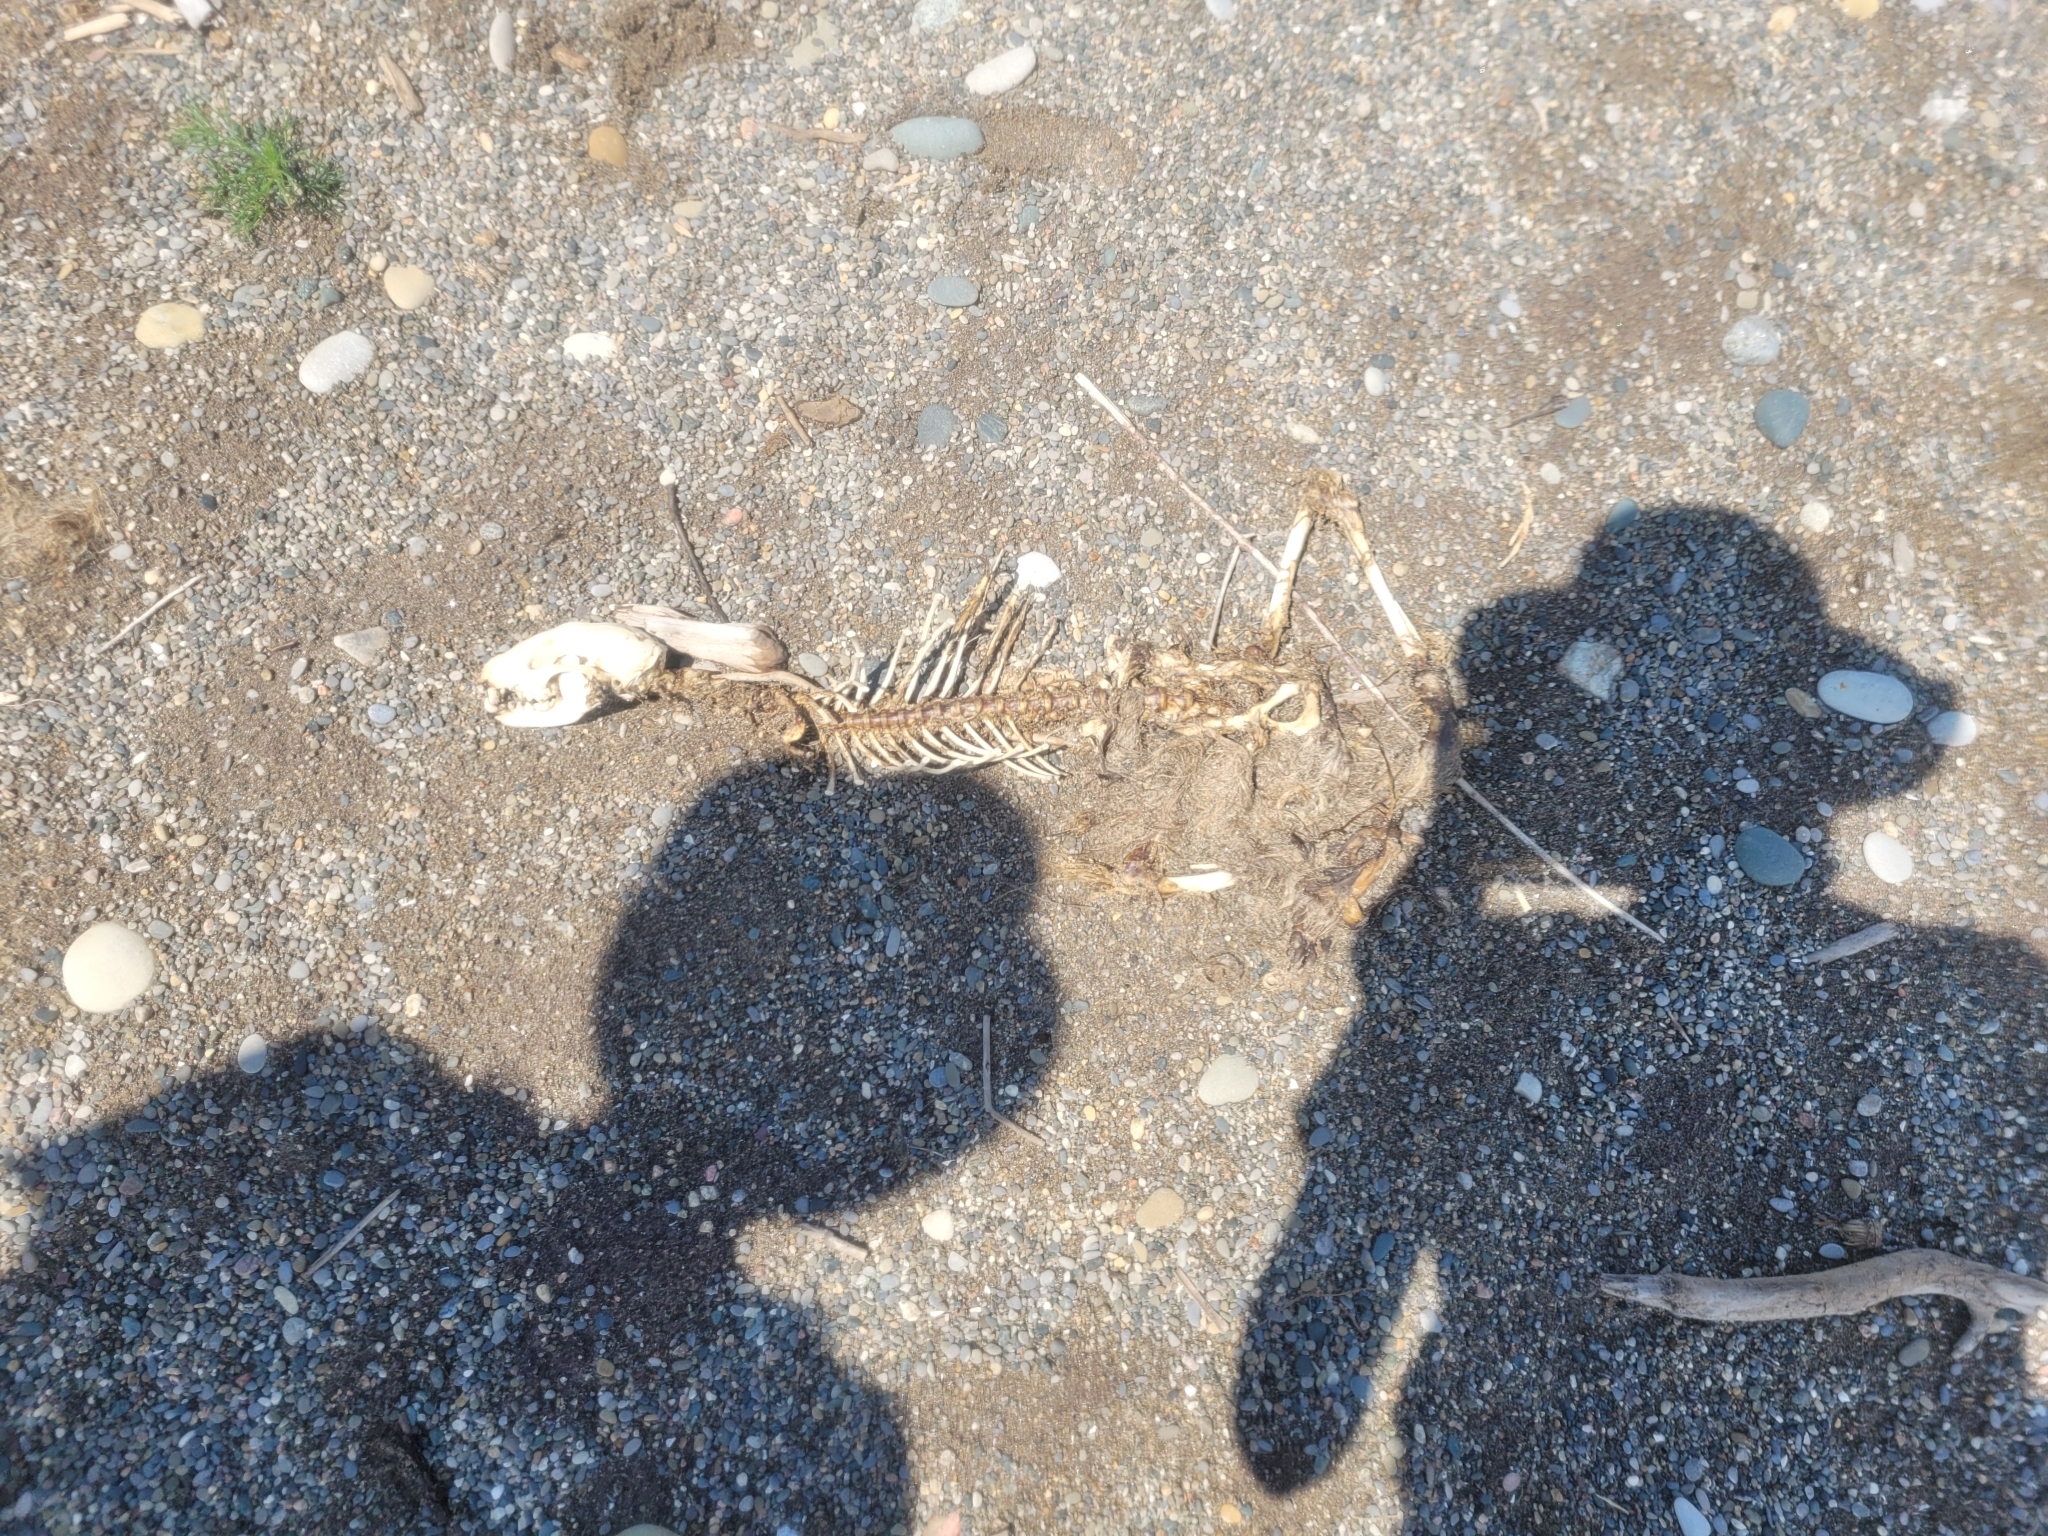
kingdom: Animalia
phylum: Chordata
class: Mammalia
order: Carnivora
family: Procyonidae
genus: Procyon
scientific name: Procyon lotor
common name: Raccoon
